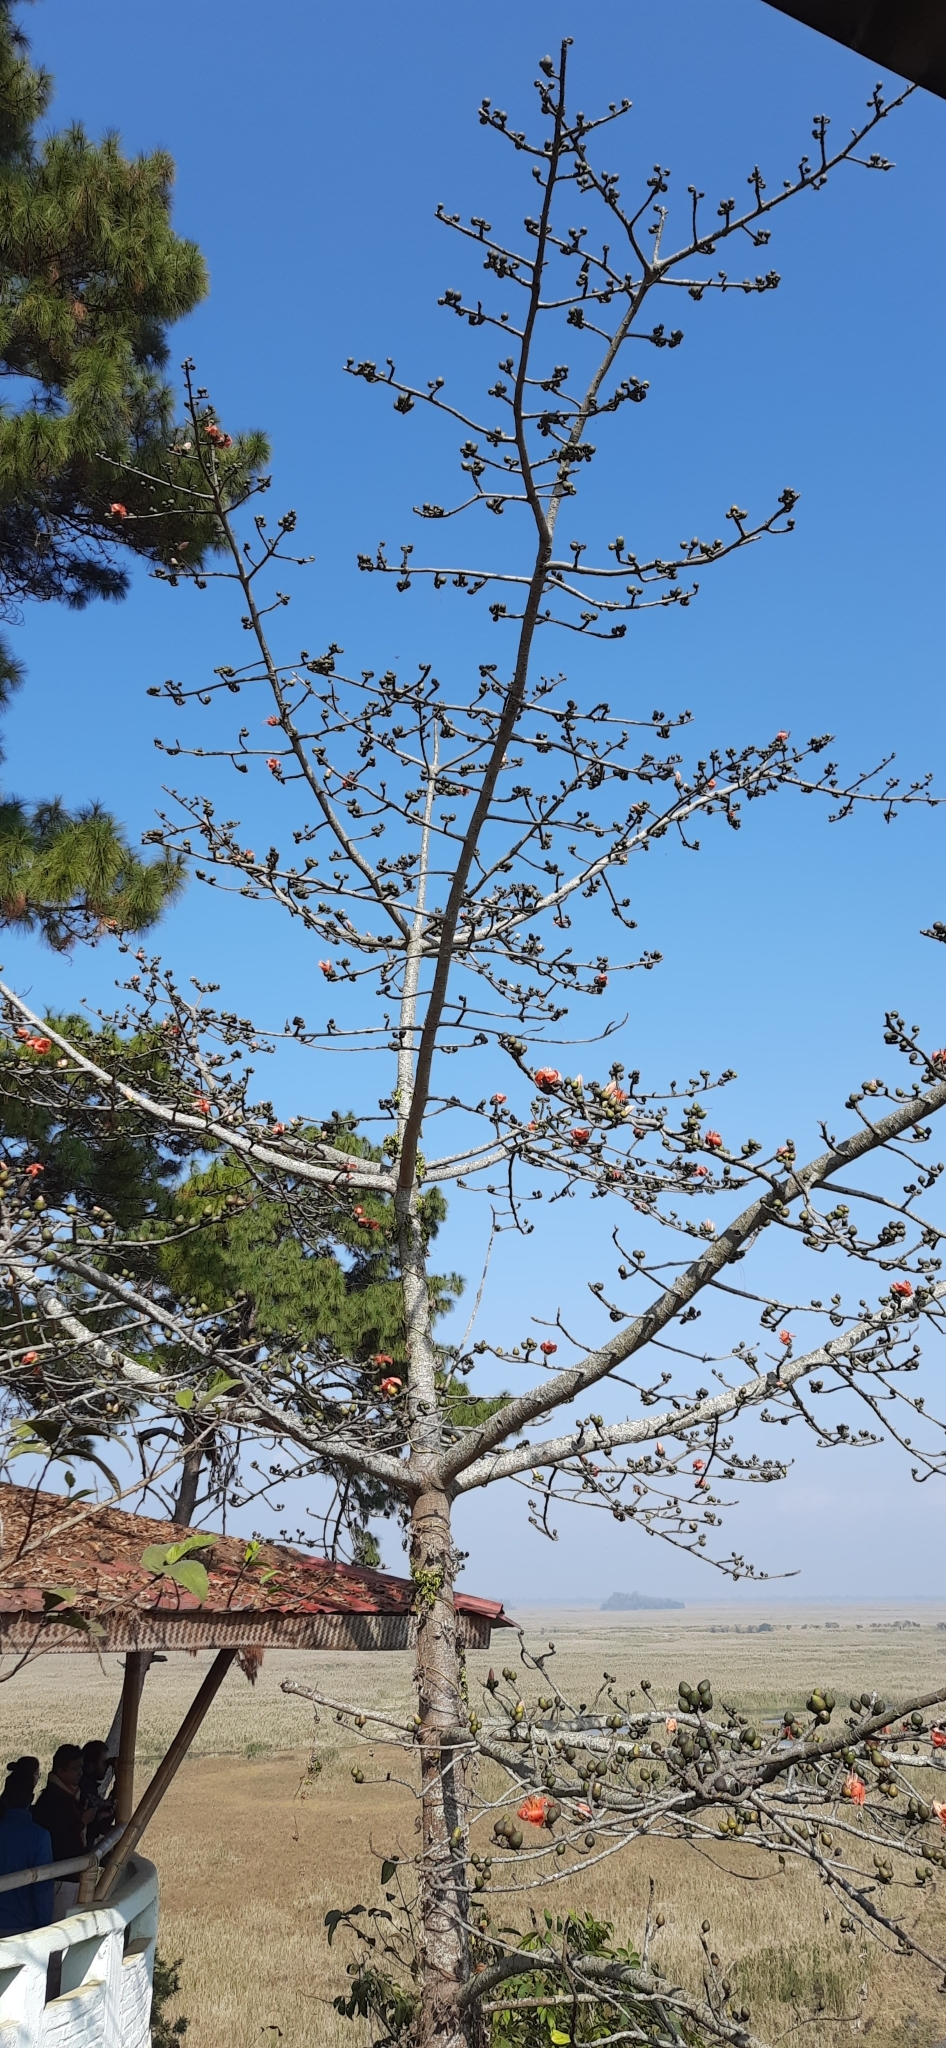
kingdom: Plantae
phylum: Tracheophyta
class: Magnoliopsida
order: Malvales
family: Malvaceae
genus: Bombax
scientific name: Bombax ceiba
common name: Northern-cottonwood
